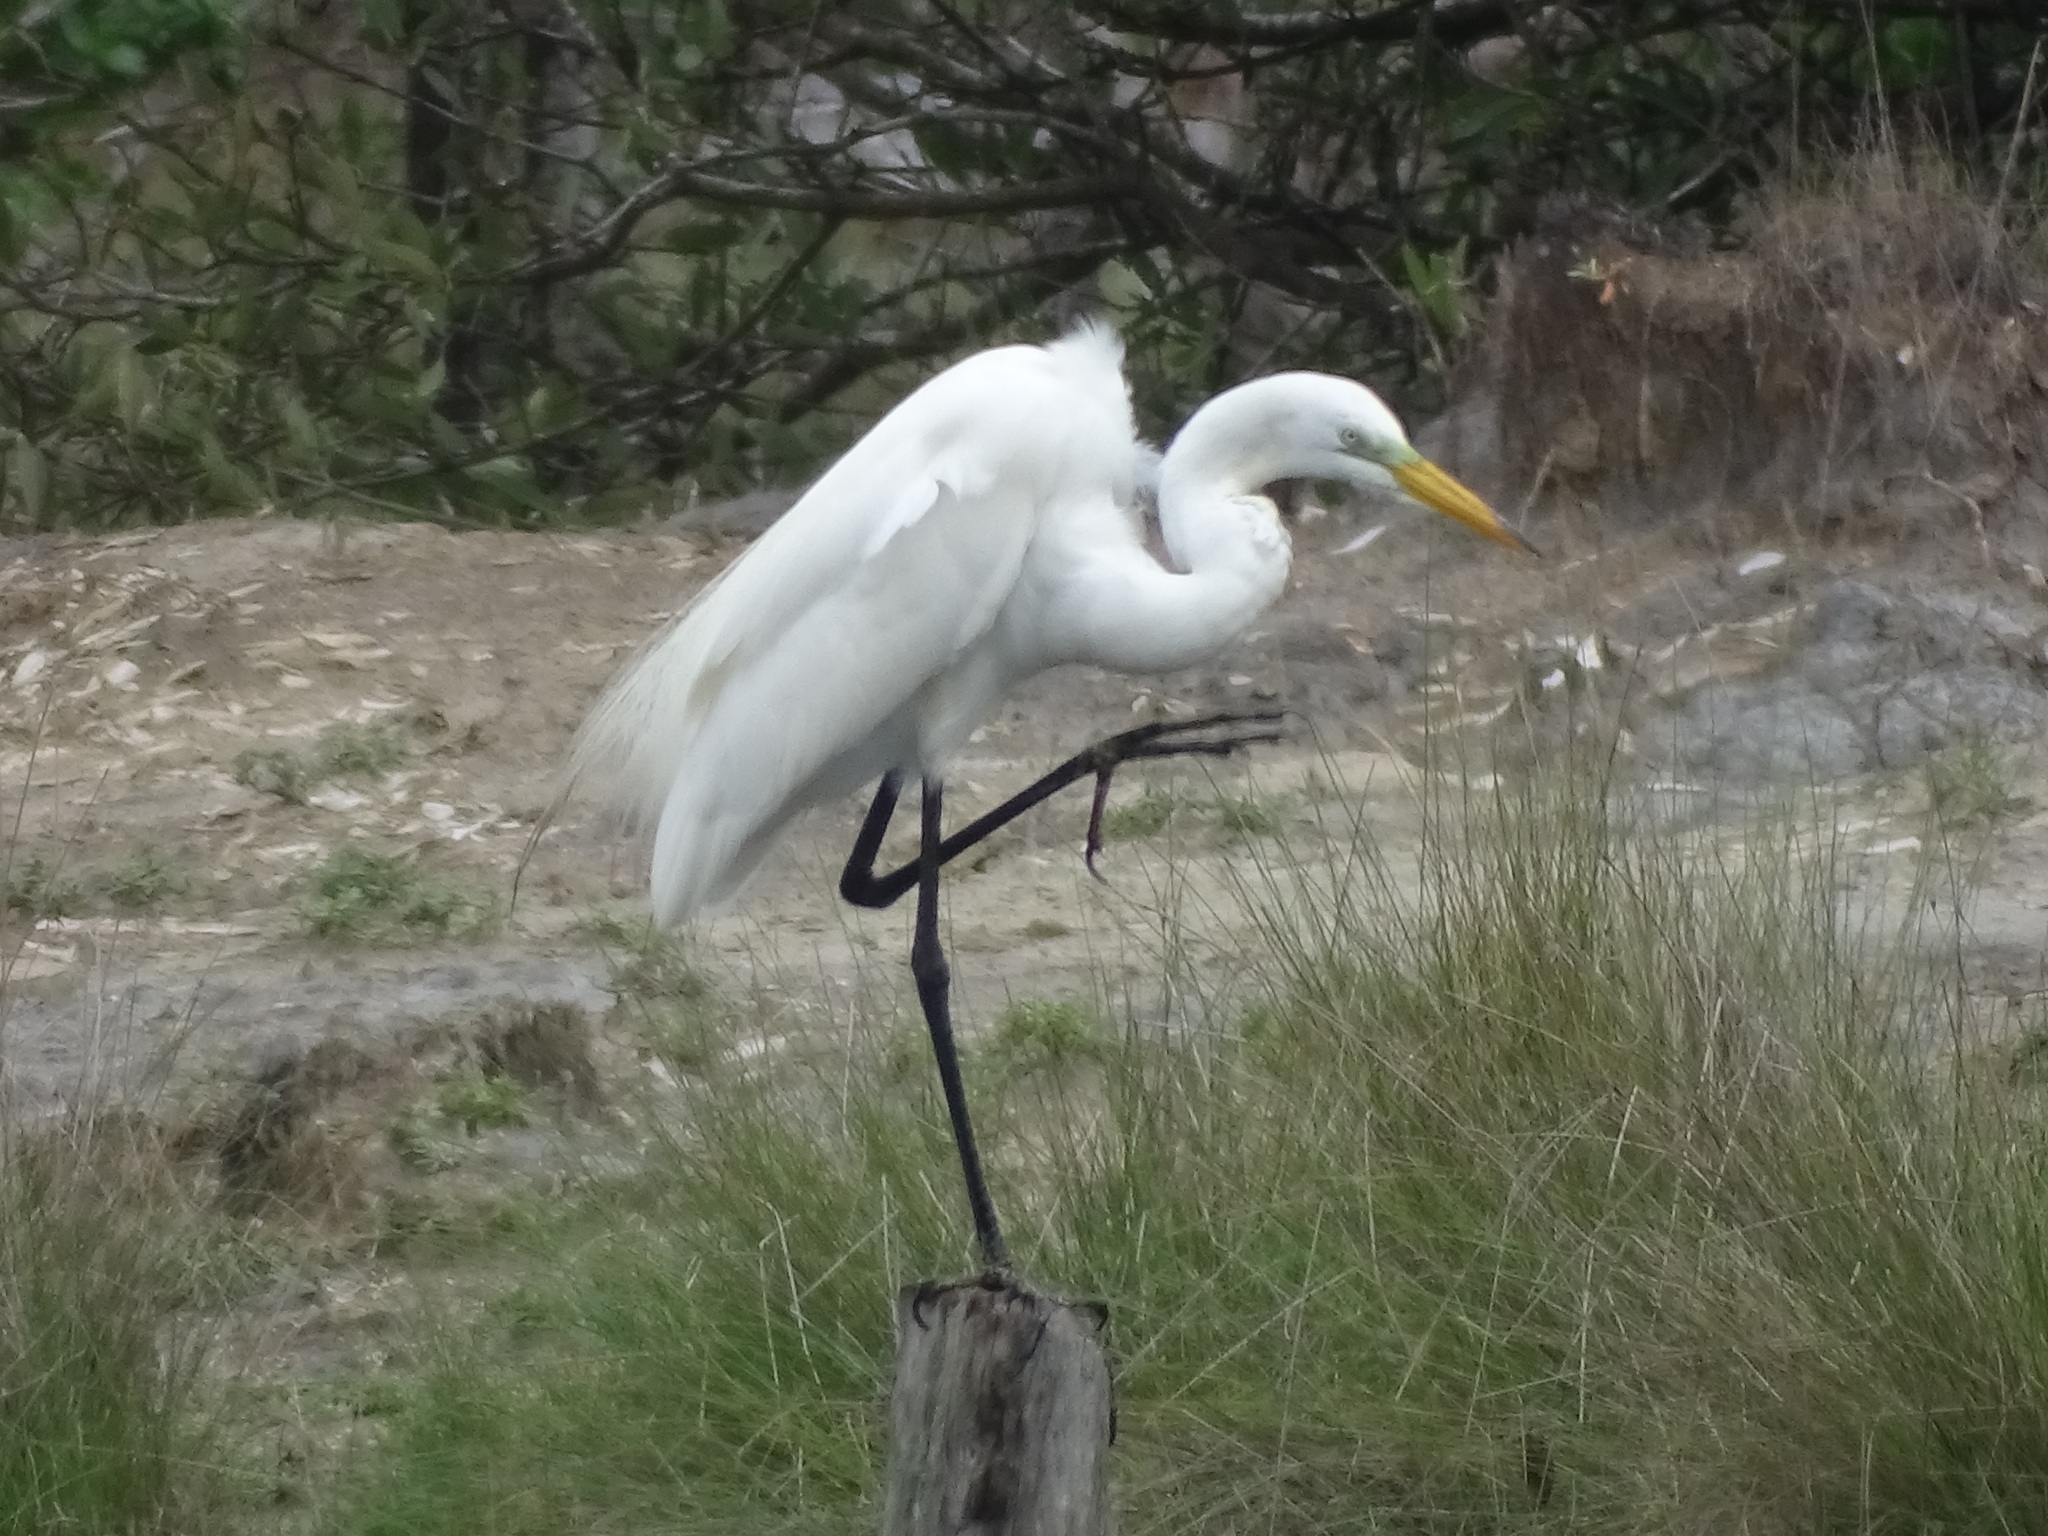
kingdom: Animalia
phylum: Chordata
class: Aves
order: Pelecaniformes
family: Ardeidae
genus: Ardea
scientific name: Ardea alba
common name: Great egret
